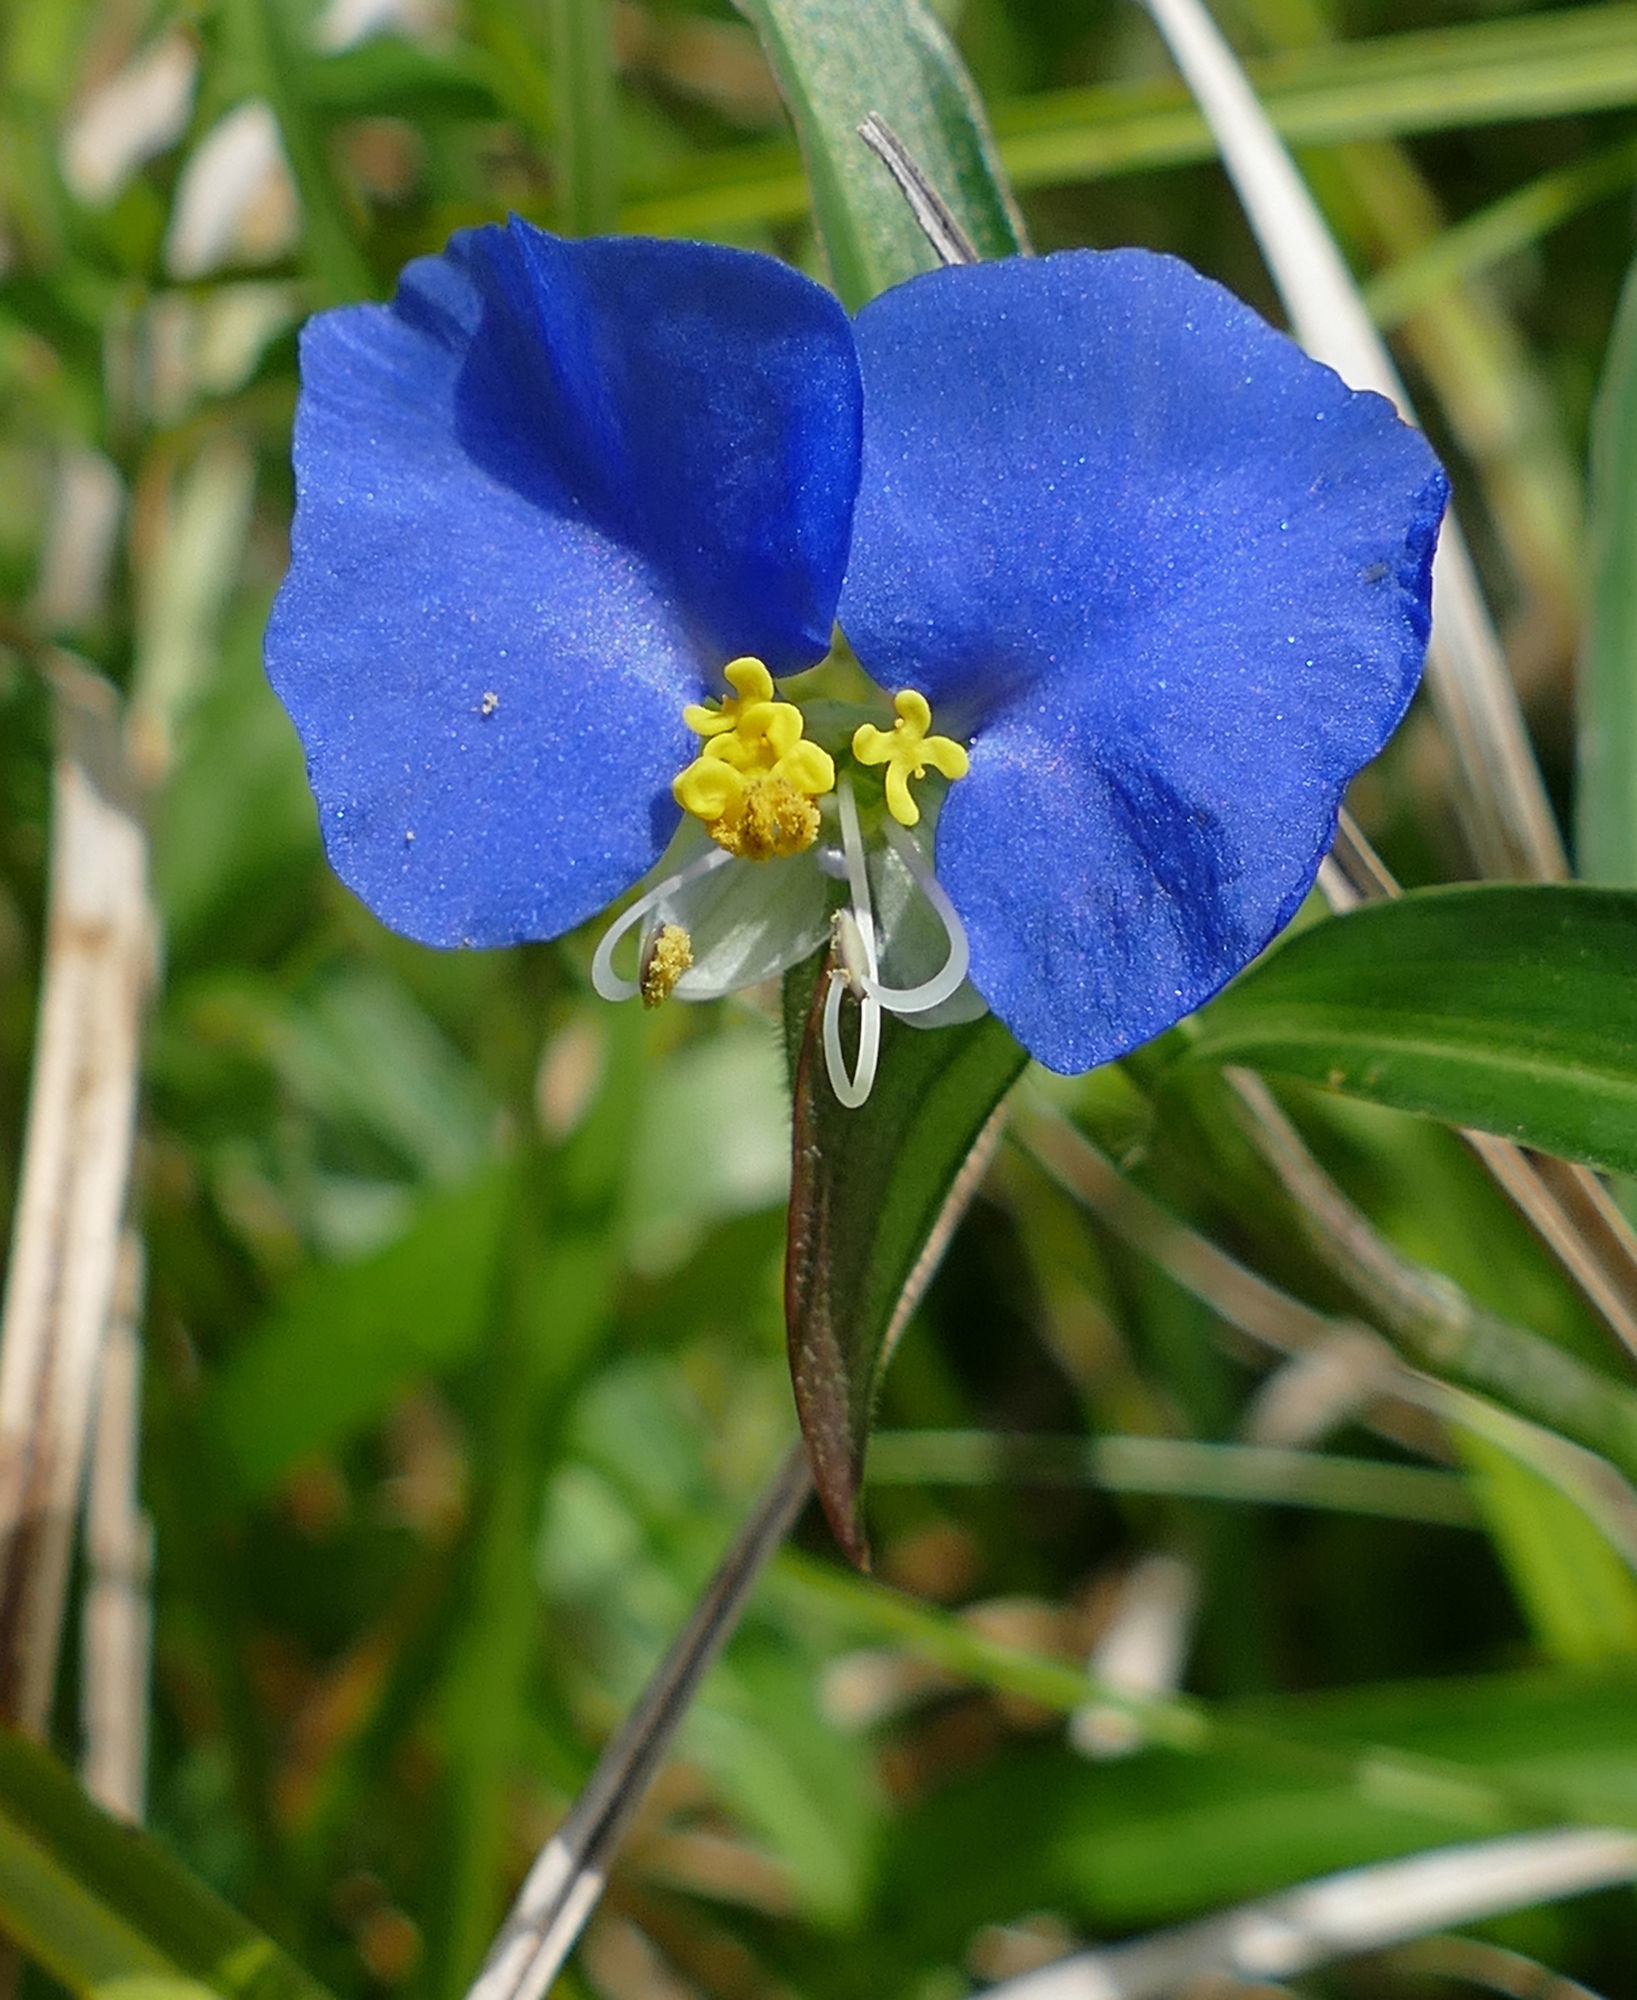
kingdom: Plantae
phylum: Tracheophyta
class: Liliopsida
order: Commelinales
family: Commelinaceae
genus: Commelina
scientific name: Commelina erecta
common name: Blousel blommetjie
